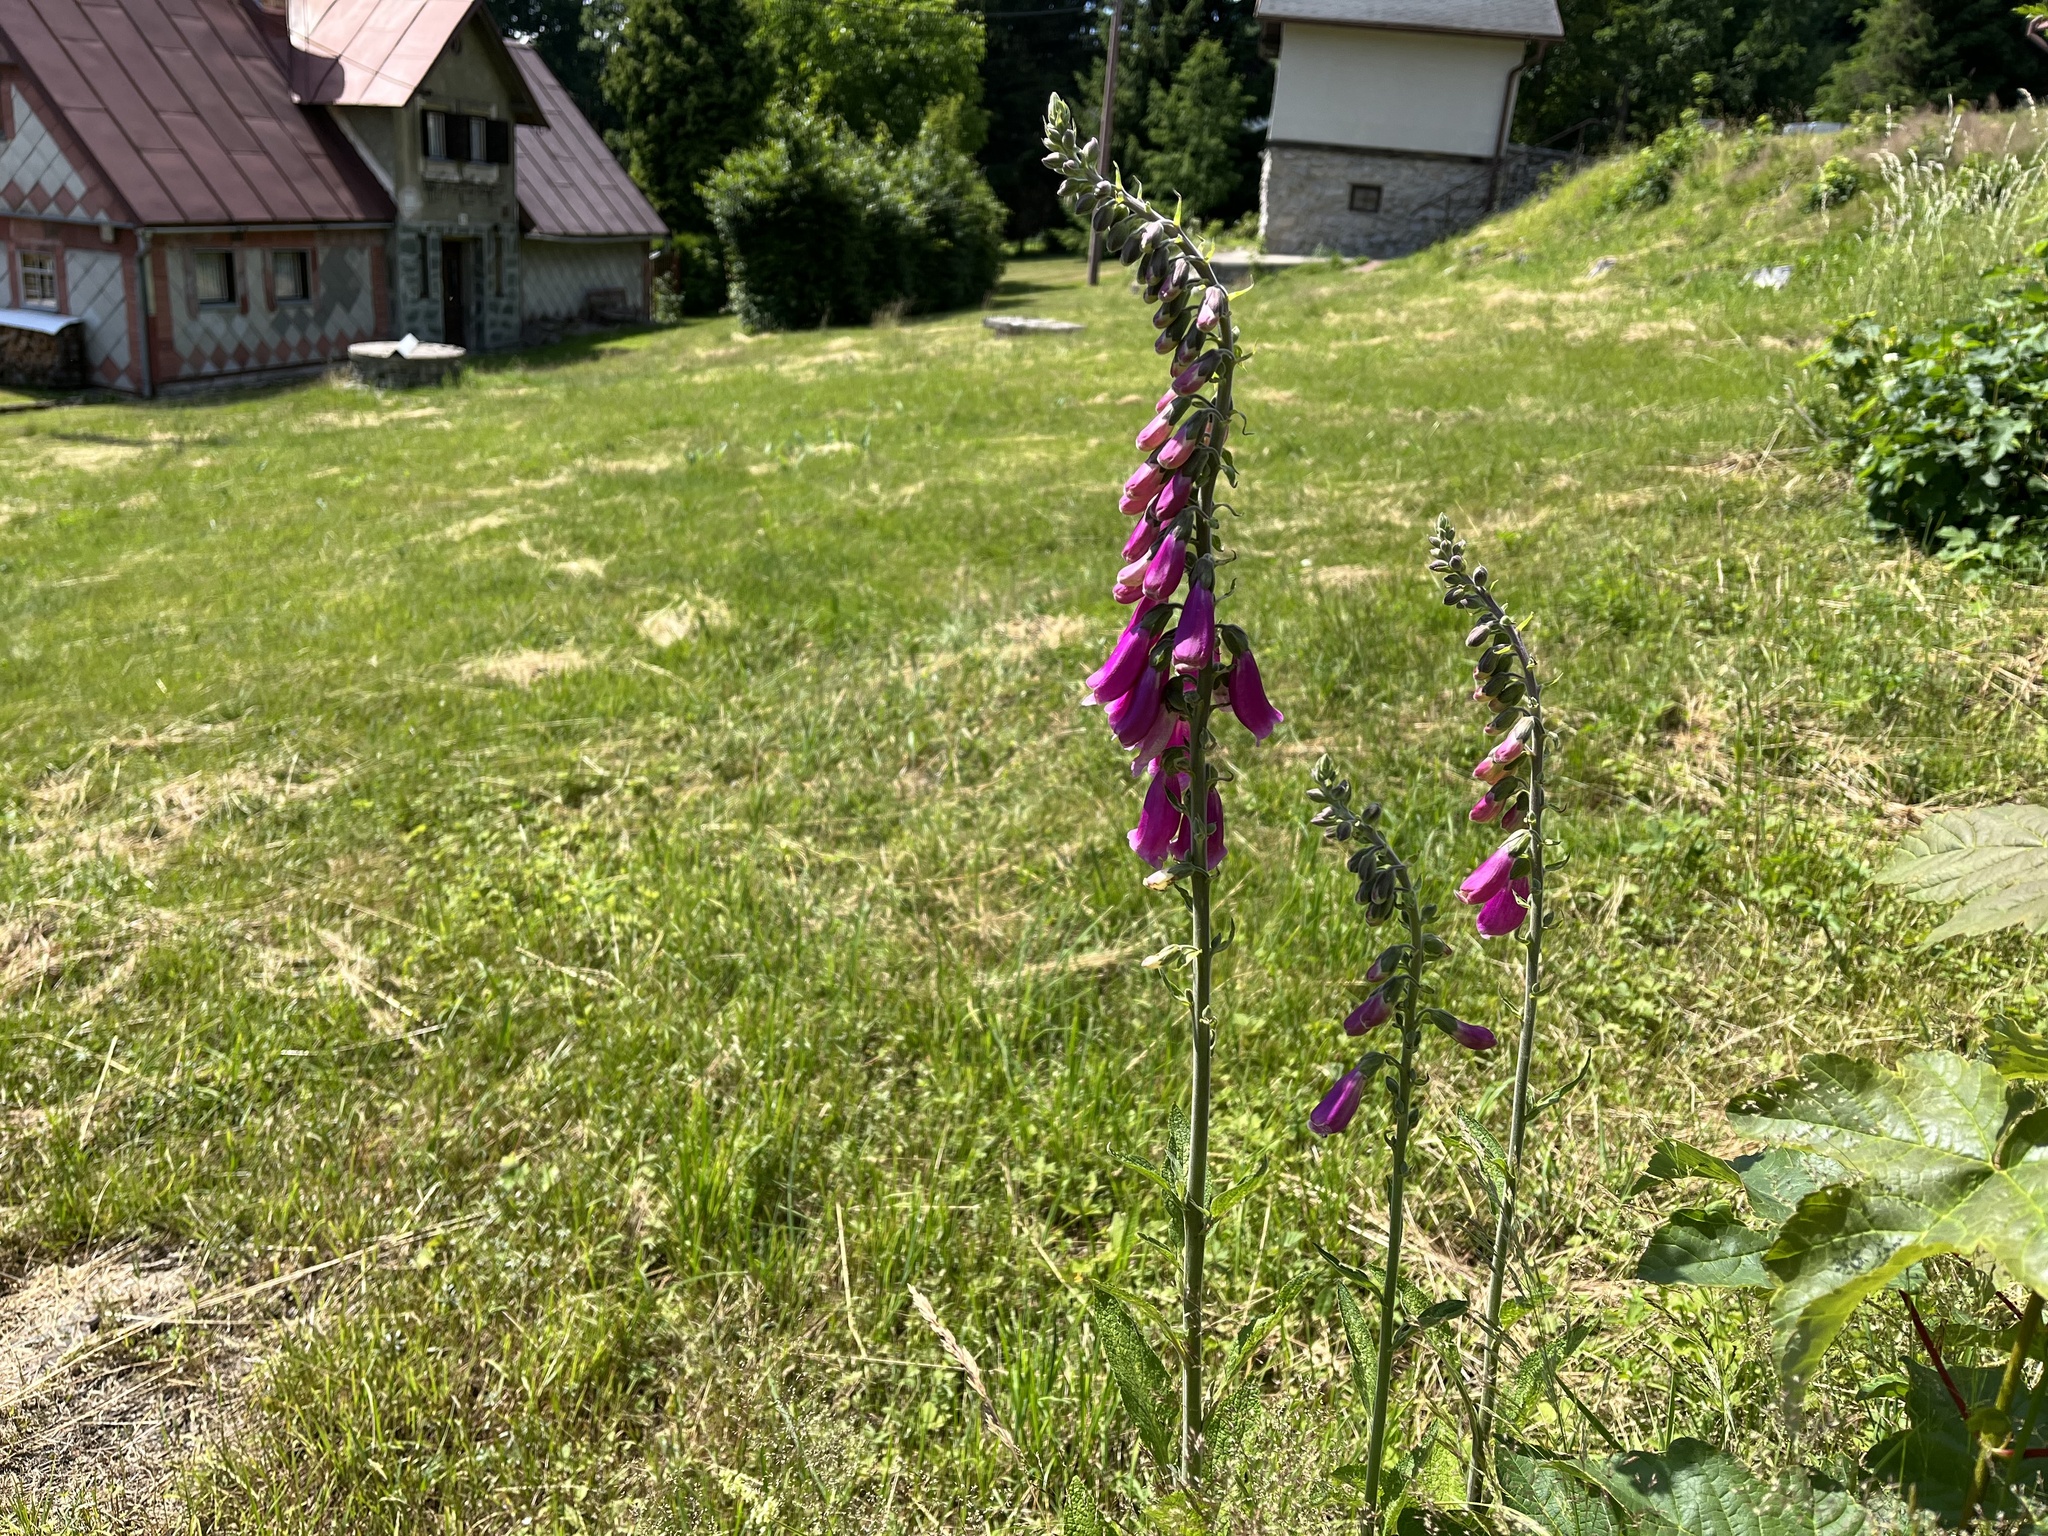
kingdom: Plantae
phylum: Tracheophyta
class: Magnoliopsida
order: Lamiales
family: Plantaginaceae
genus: Digitalis
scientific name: Digitalis purpurea
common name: Foxglove
